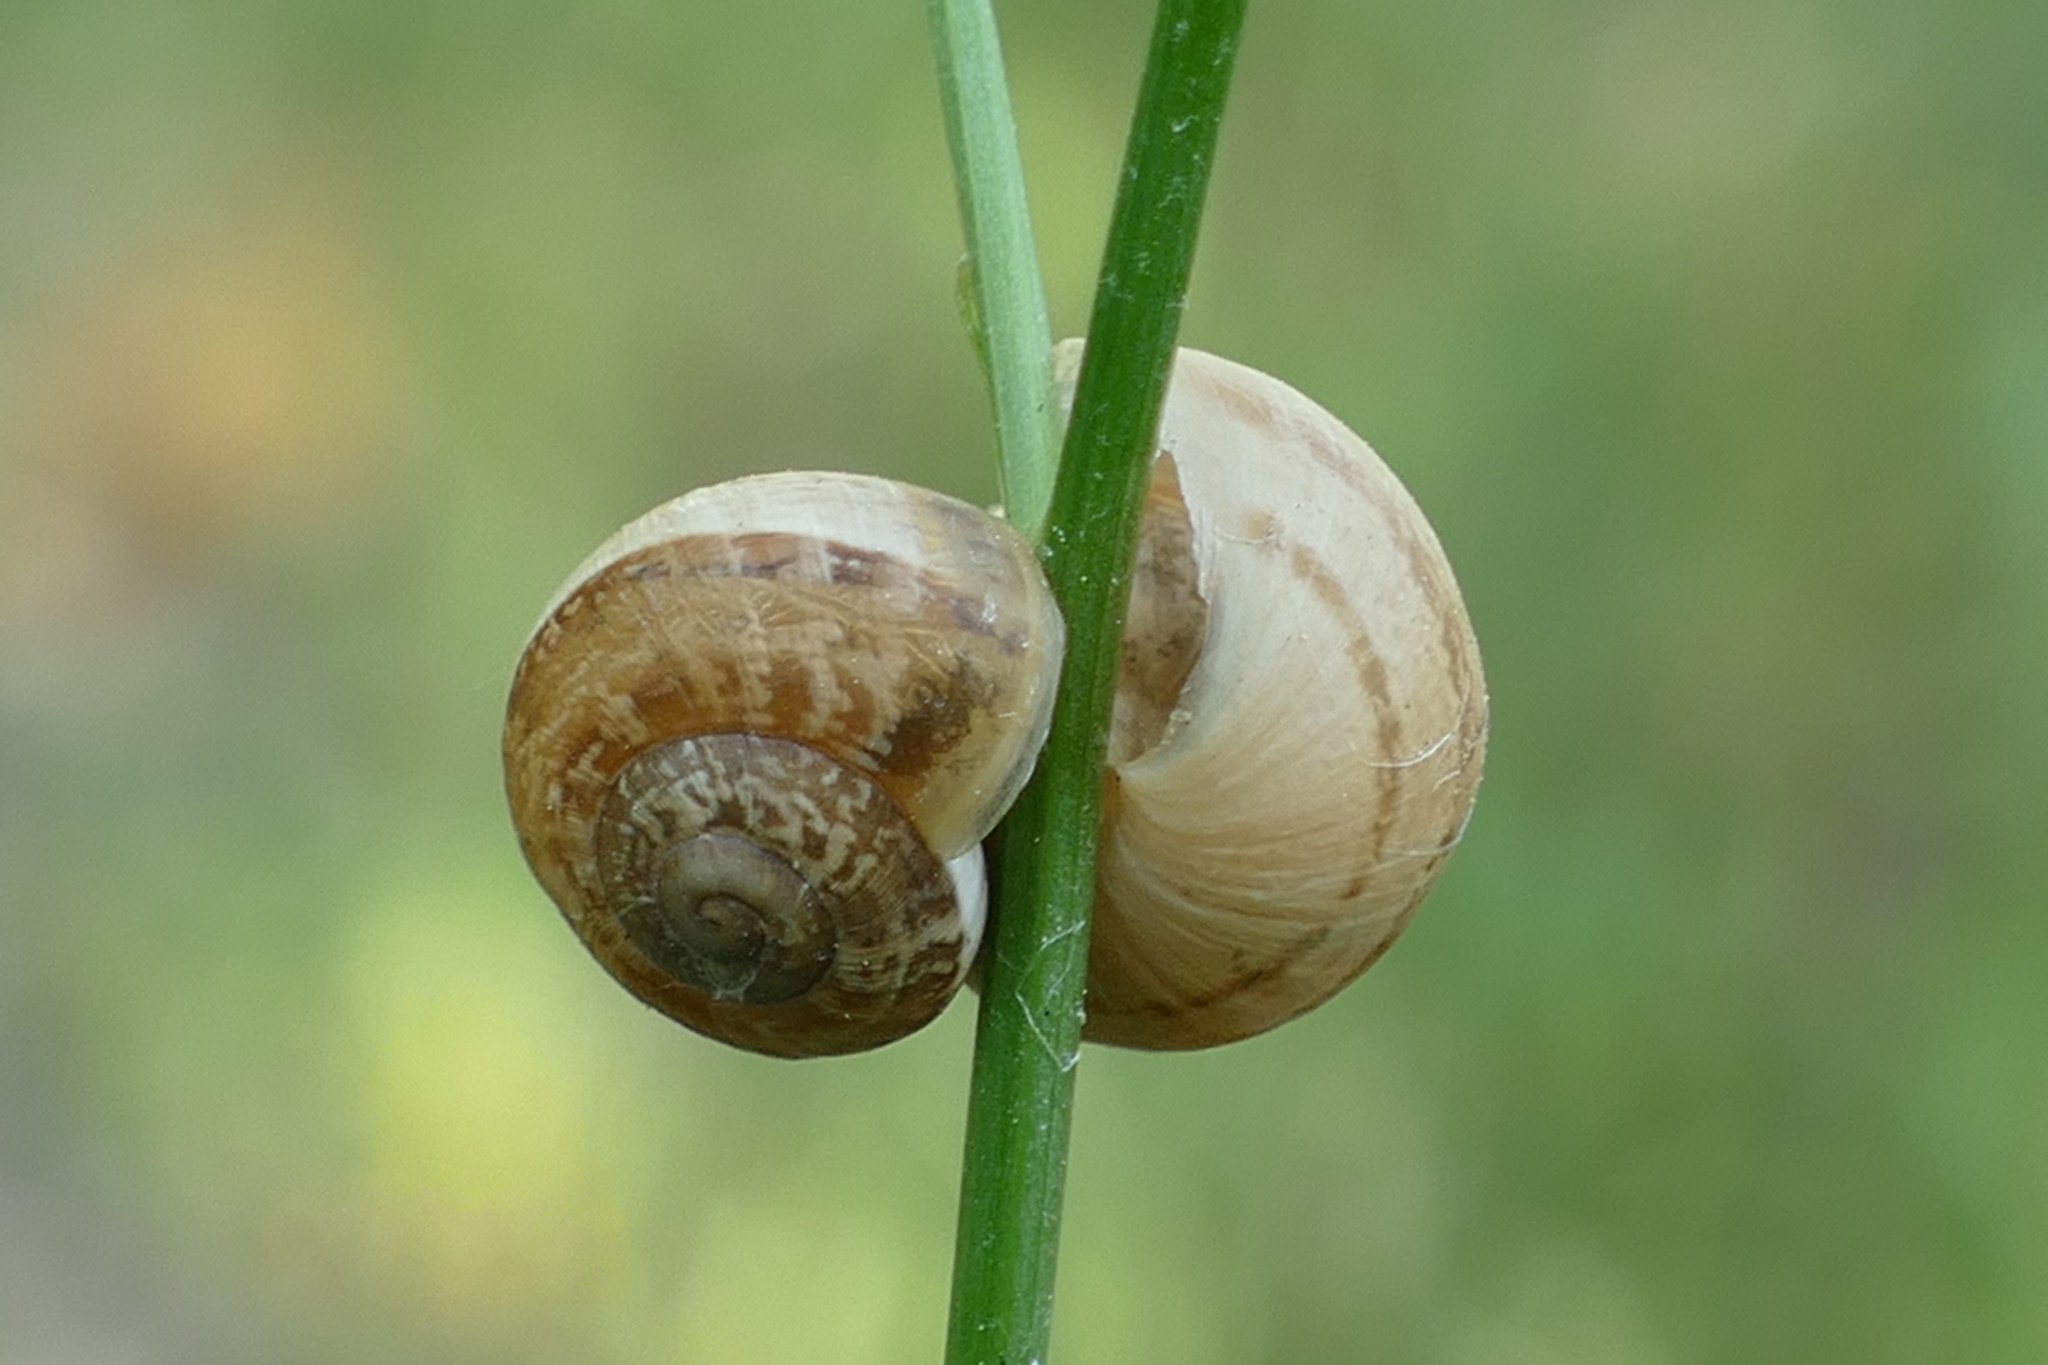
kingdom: Animalia
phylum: Mollusca
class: Gastropoda
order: Stylommatophora
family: Helicidae
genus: Eobania
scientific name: Eobania vermiculata
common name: Chocolateband snail
